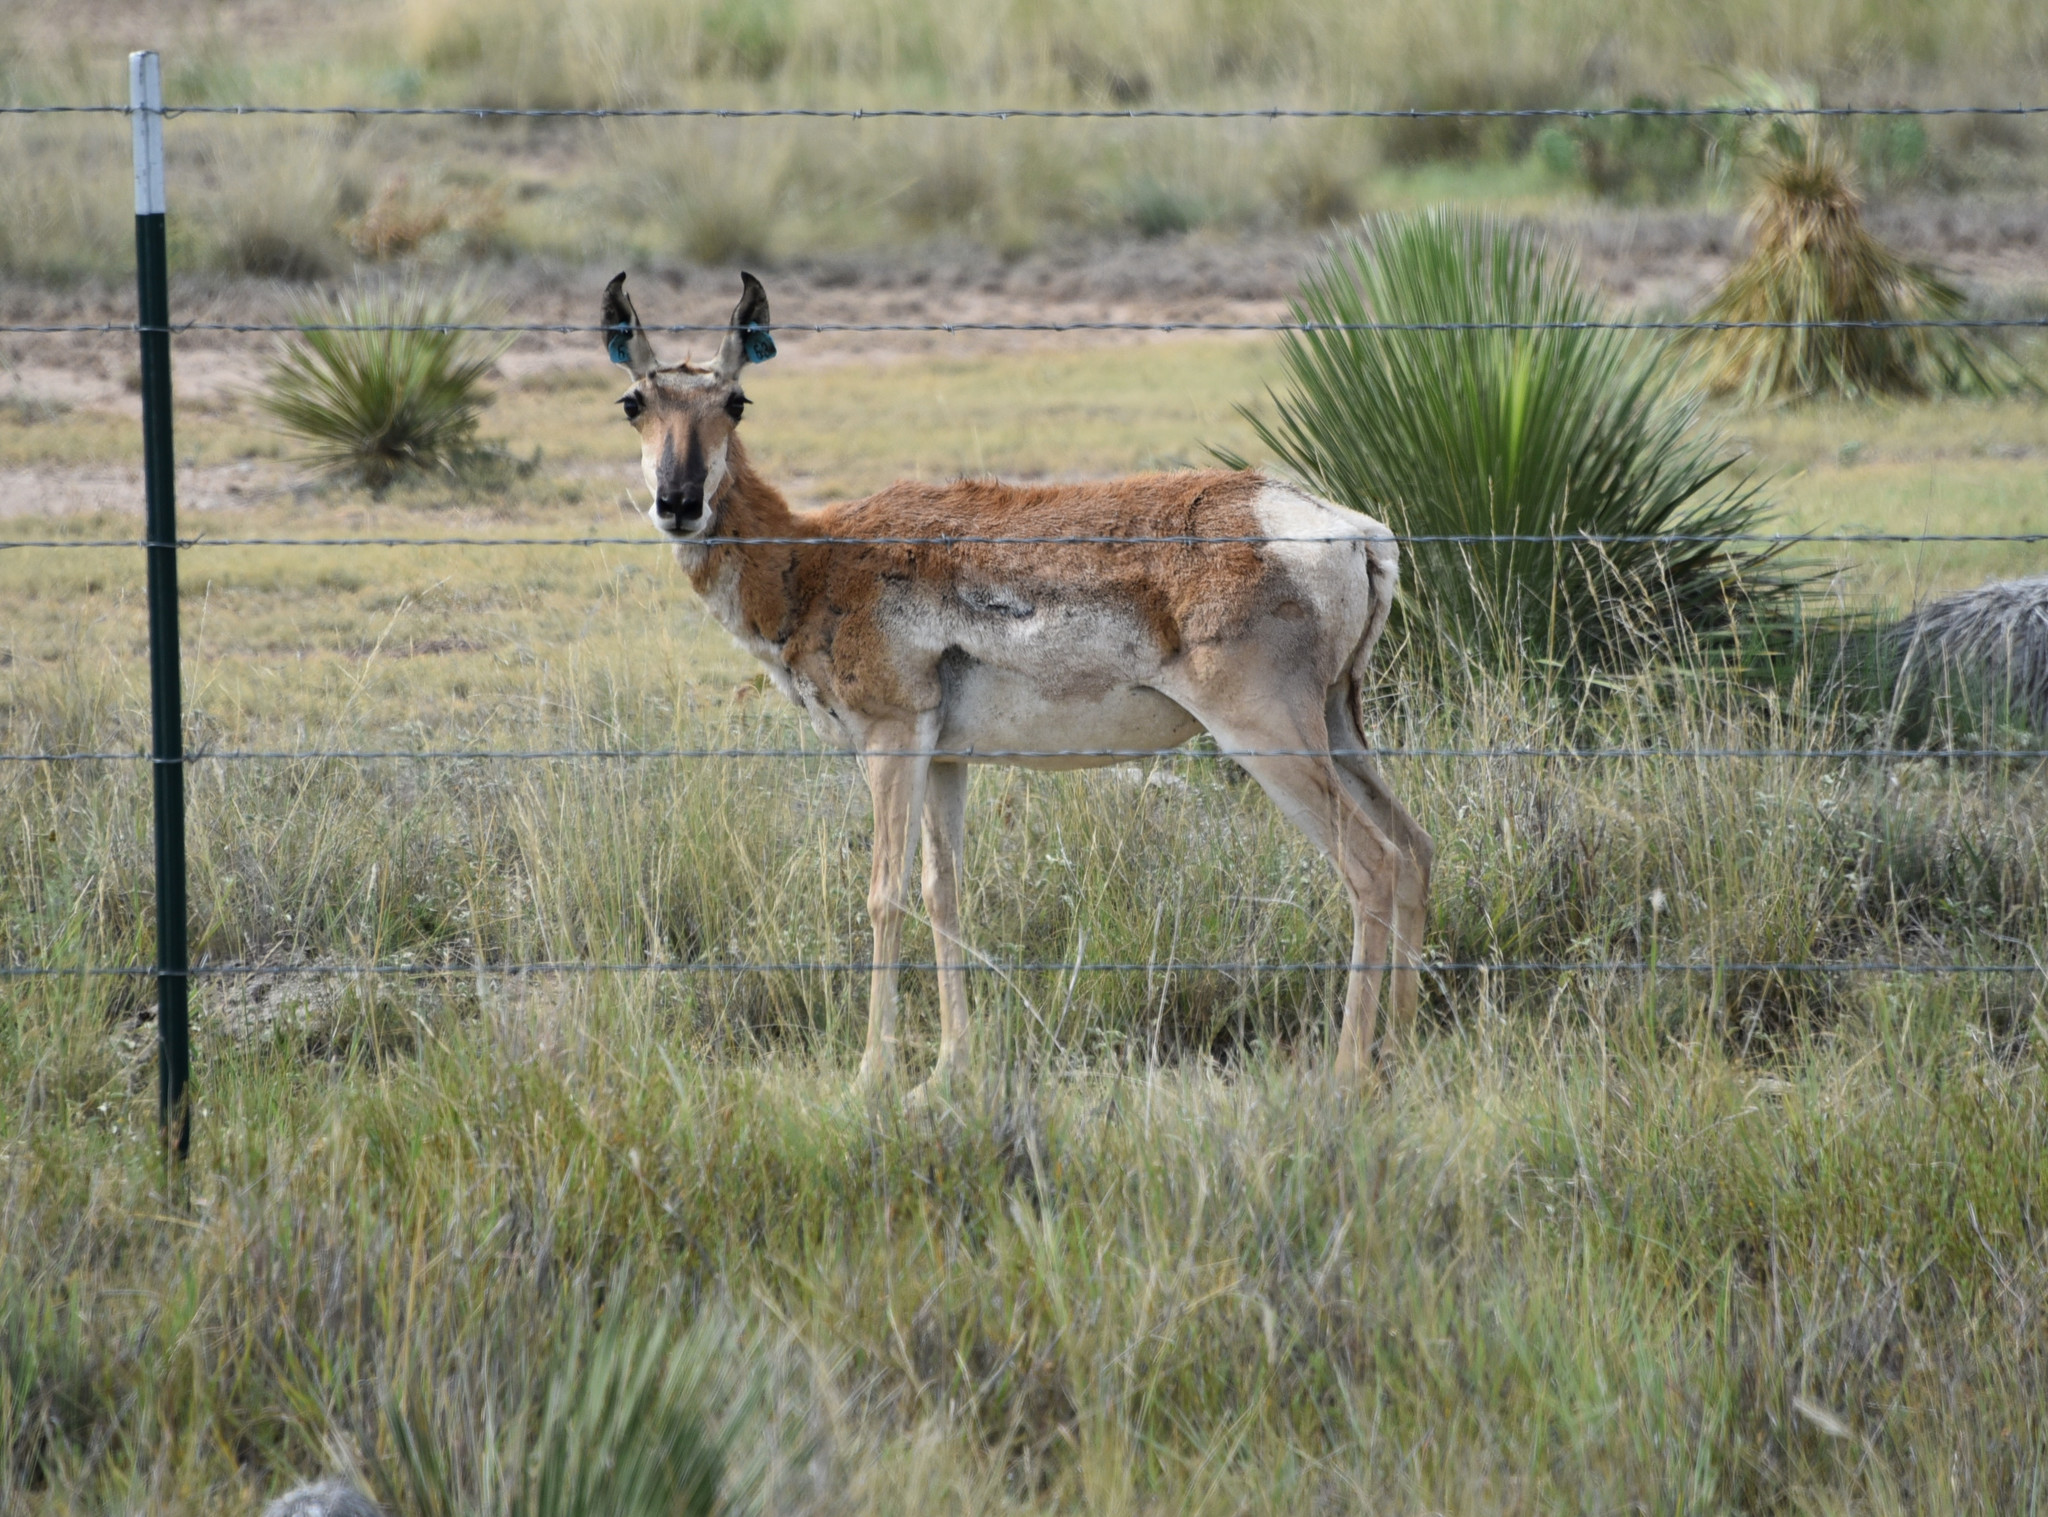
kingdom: Animalia
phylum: Chordata
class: Mammalia
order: Artiodactyla
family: Antilocapridae
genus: Antilocapra
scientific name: Antilocapra americana
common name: Pronghorn
